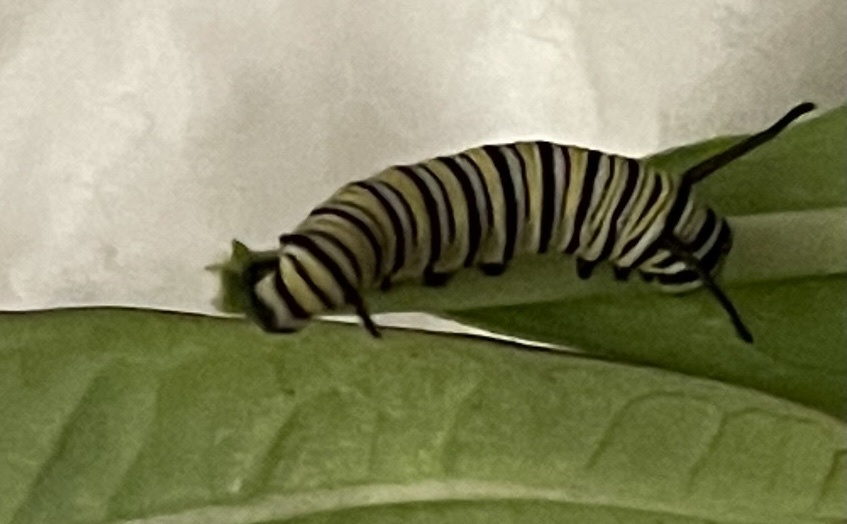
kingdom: Animalia
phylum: Arthropoda
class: Insecta
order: Lepidoptera
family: Nymphalidae
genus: Danaus
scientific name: Danaus plexippus
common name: Monarch
